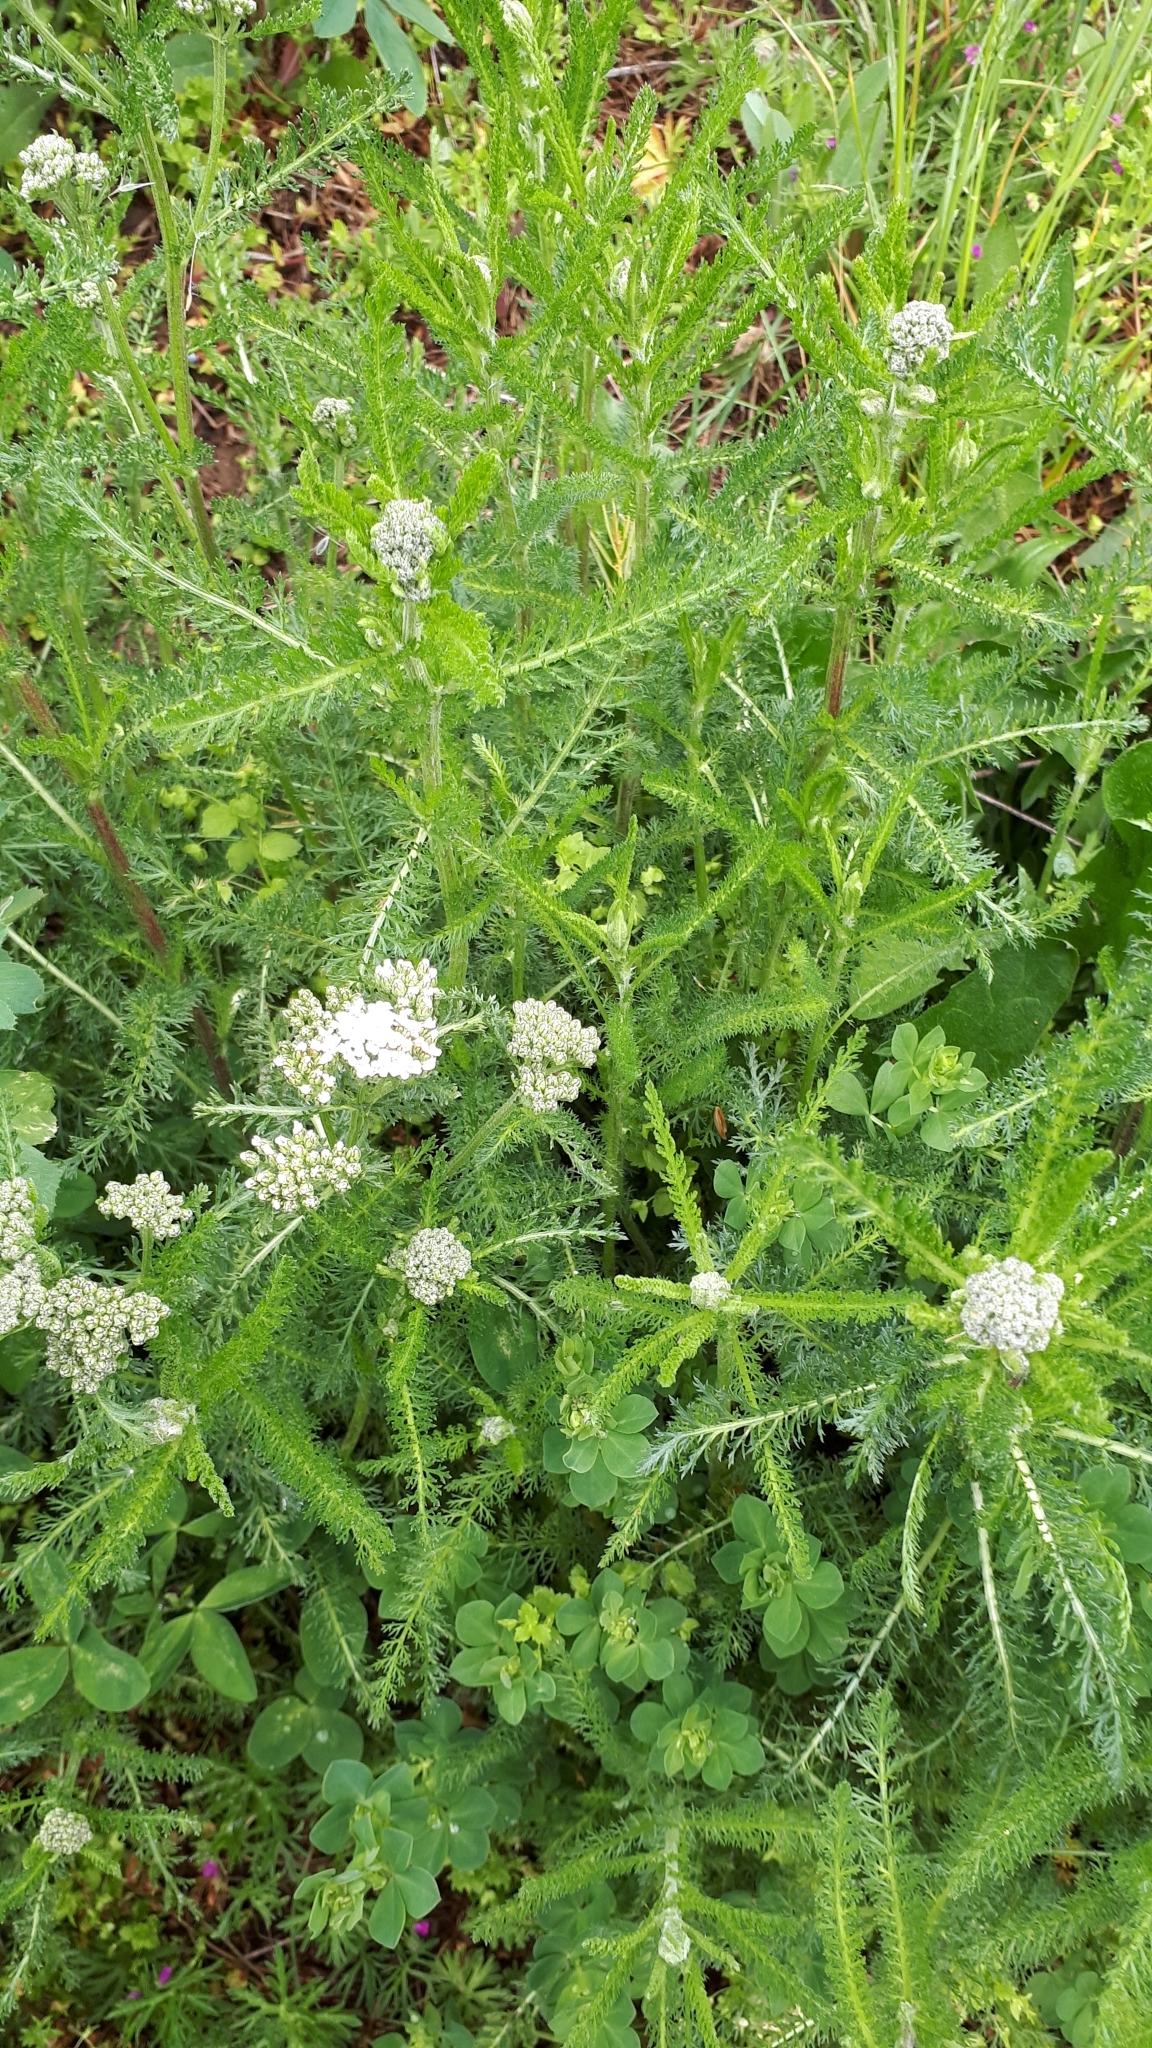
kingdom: Plantae
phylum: Tracheophyta
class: Magnoliopsida
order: Asterales
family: Asteraceae
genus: Achillea
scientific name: Achillea millefolium
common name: Yarrow
